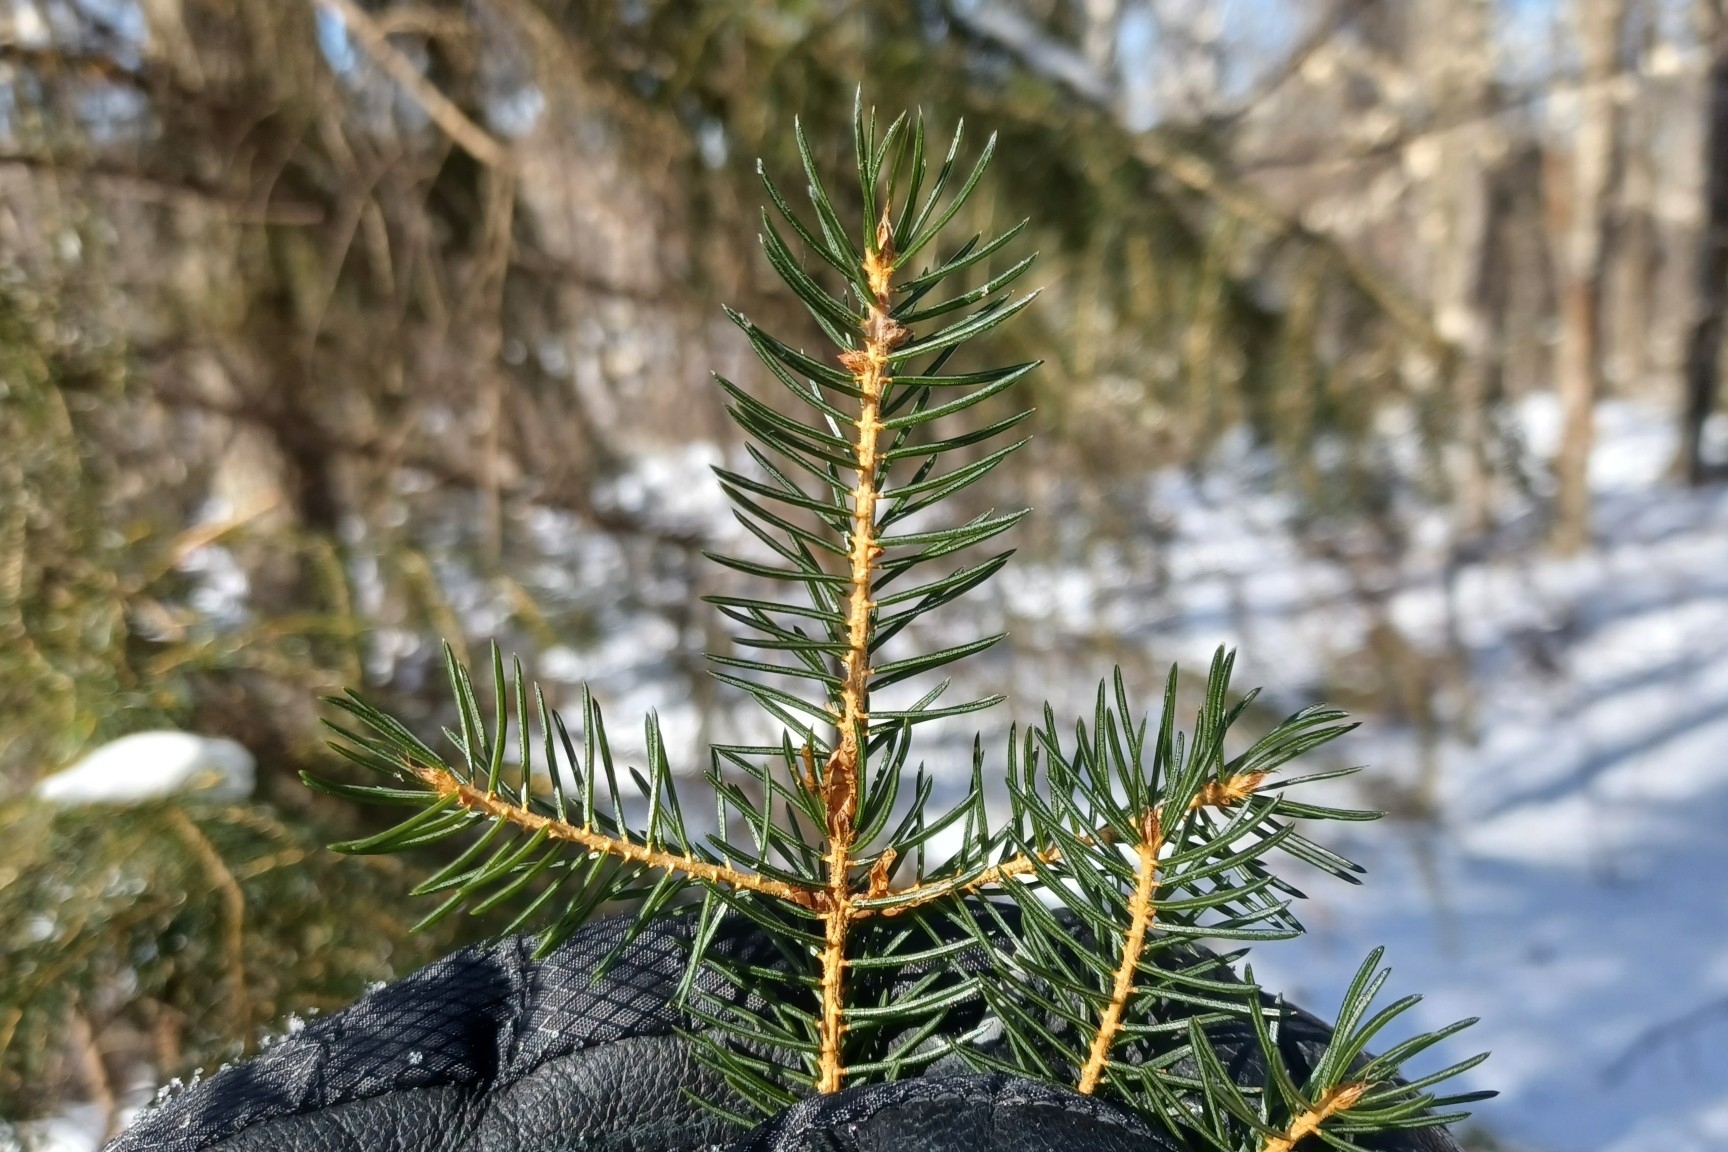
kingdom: Plantae
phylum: Tracheophyta
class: Pinopsida
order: Pinales
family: Pinaceae
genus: Picea
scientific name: Picea rubens
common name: Red spruce
